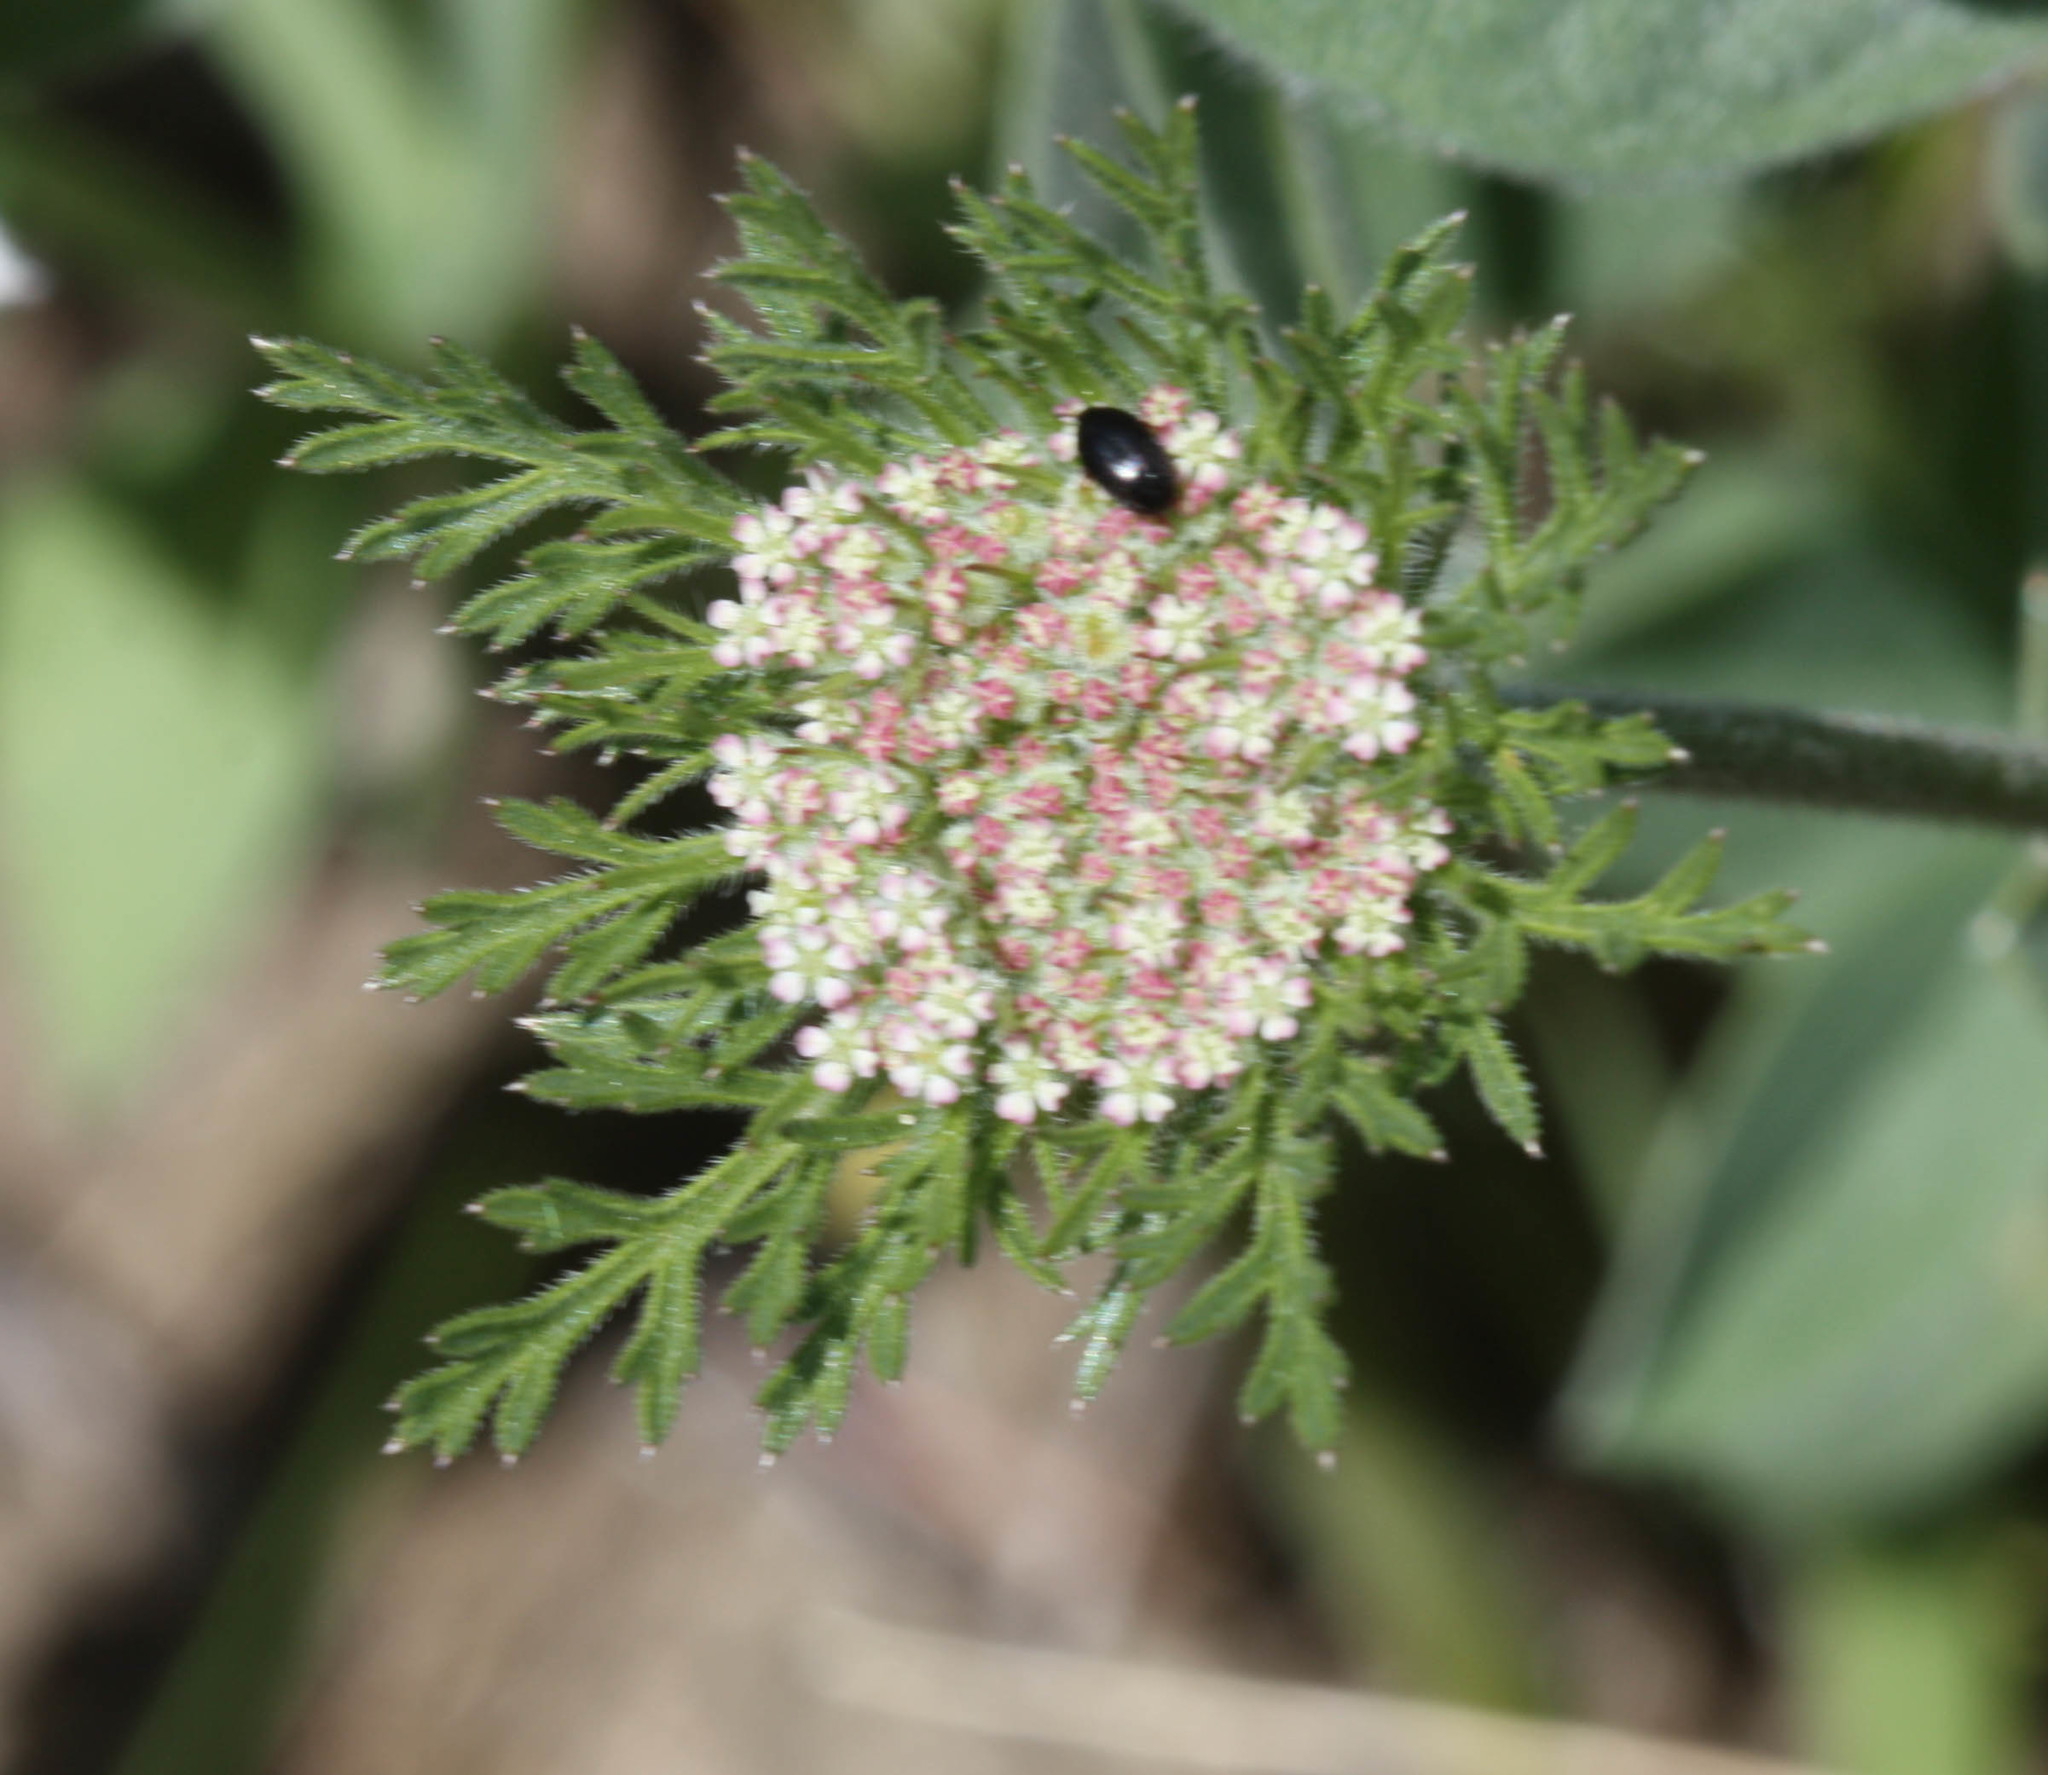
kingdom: Plantae
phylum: Tracheophyta
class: Magnoliopsida
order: Apiales
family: Apiaceae
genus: Daucus
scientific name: Daucus pusillus
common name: Southwest wild carrot
